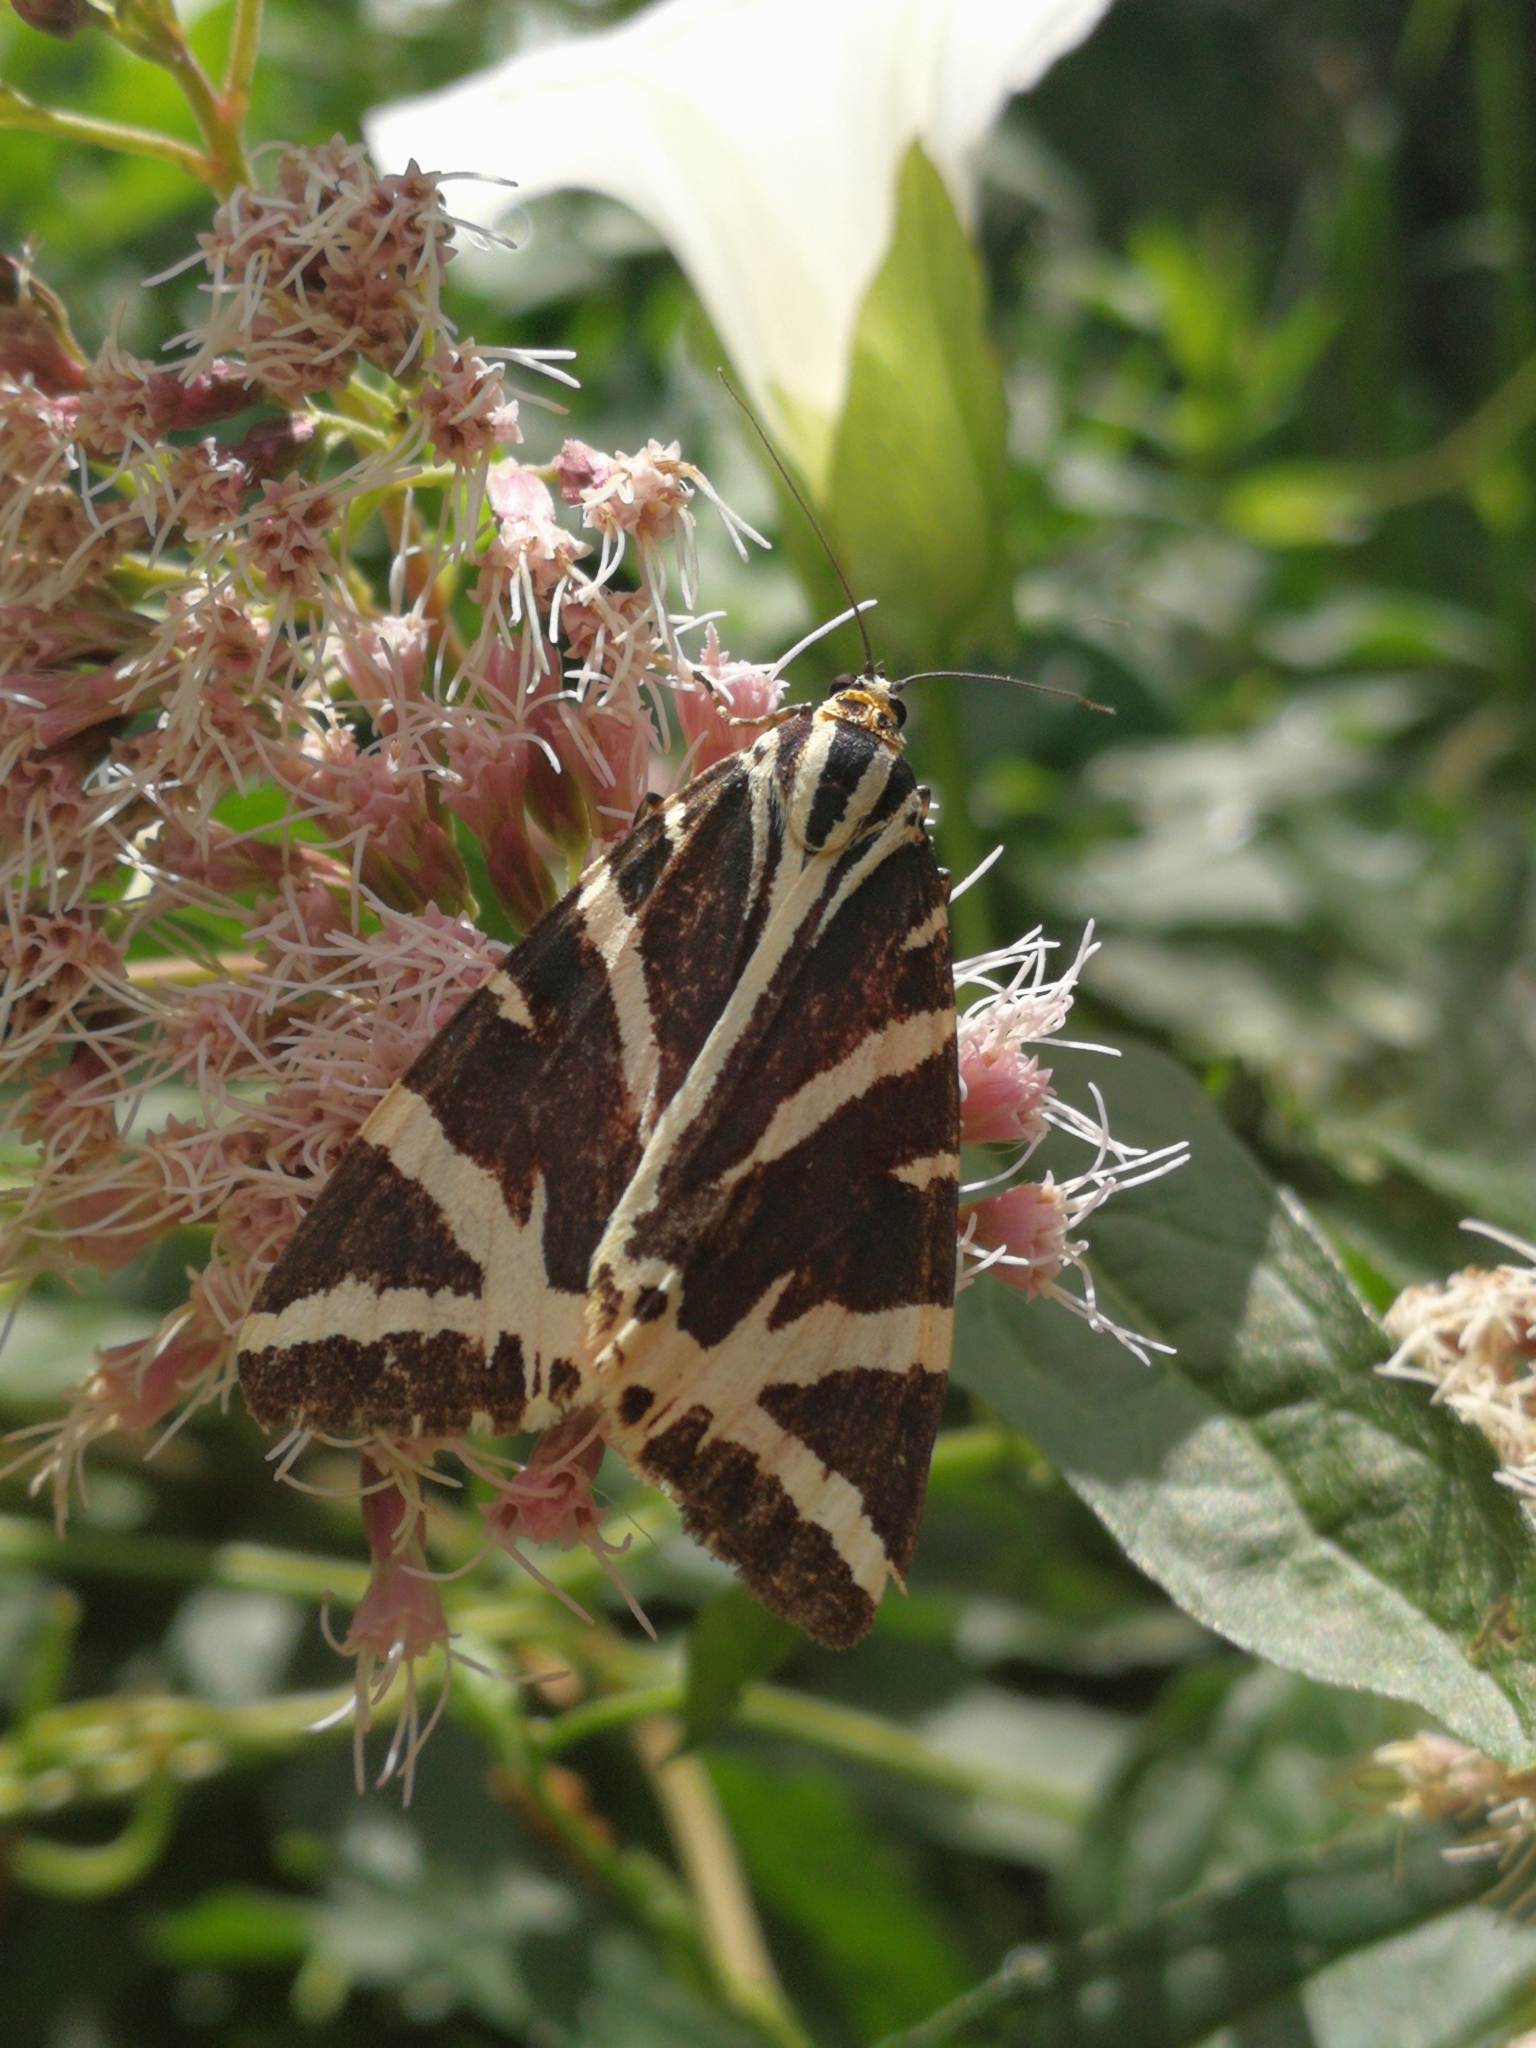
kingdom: Animalia
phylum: Arthropoda
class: Insecta
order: Lepidoptera
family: Erebidae
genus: Euplagia
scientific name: Euplagia quadripunctaria
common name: Jersey tiger
